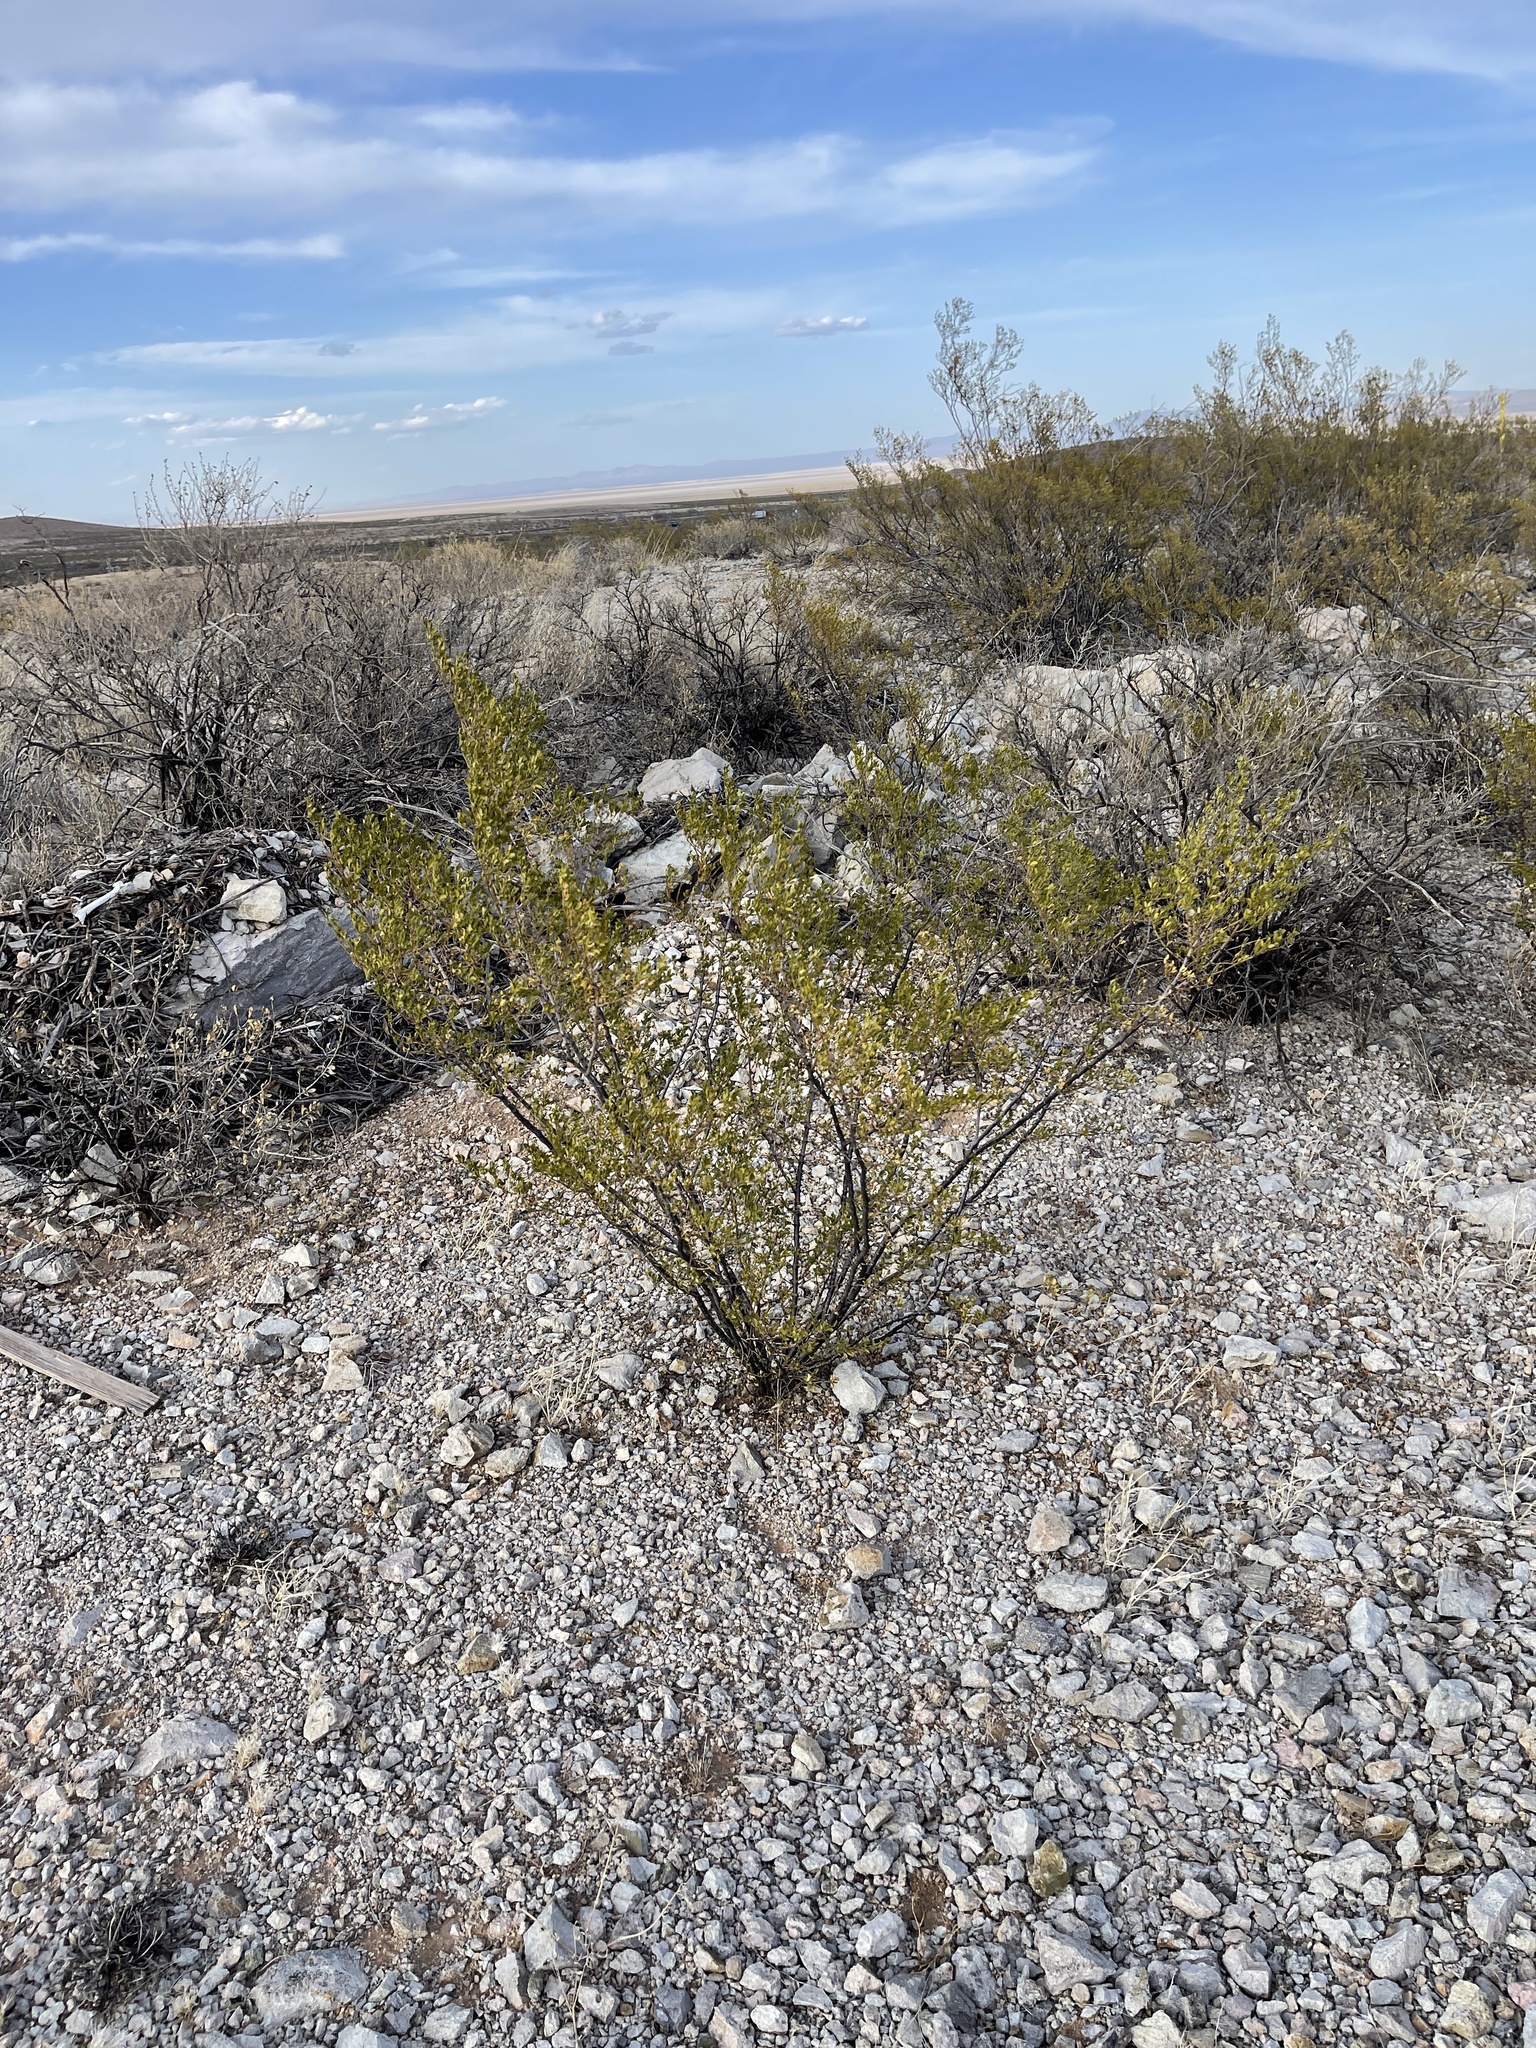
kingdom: Plantae
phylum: Tracheophyta
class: Magnoliopsida
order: Zygophyllales
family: Zygophyllaceae
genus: Larrea
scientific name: Larrea tridentata
